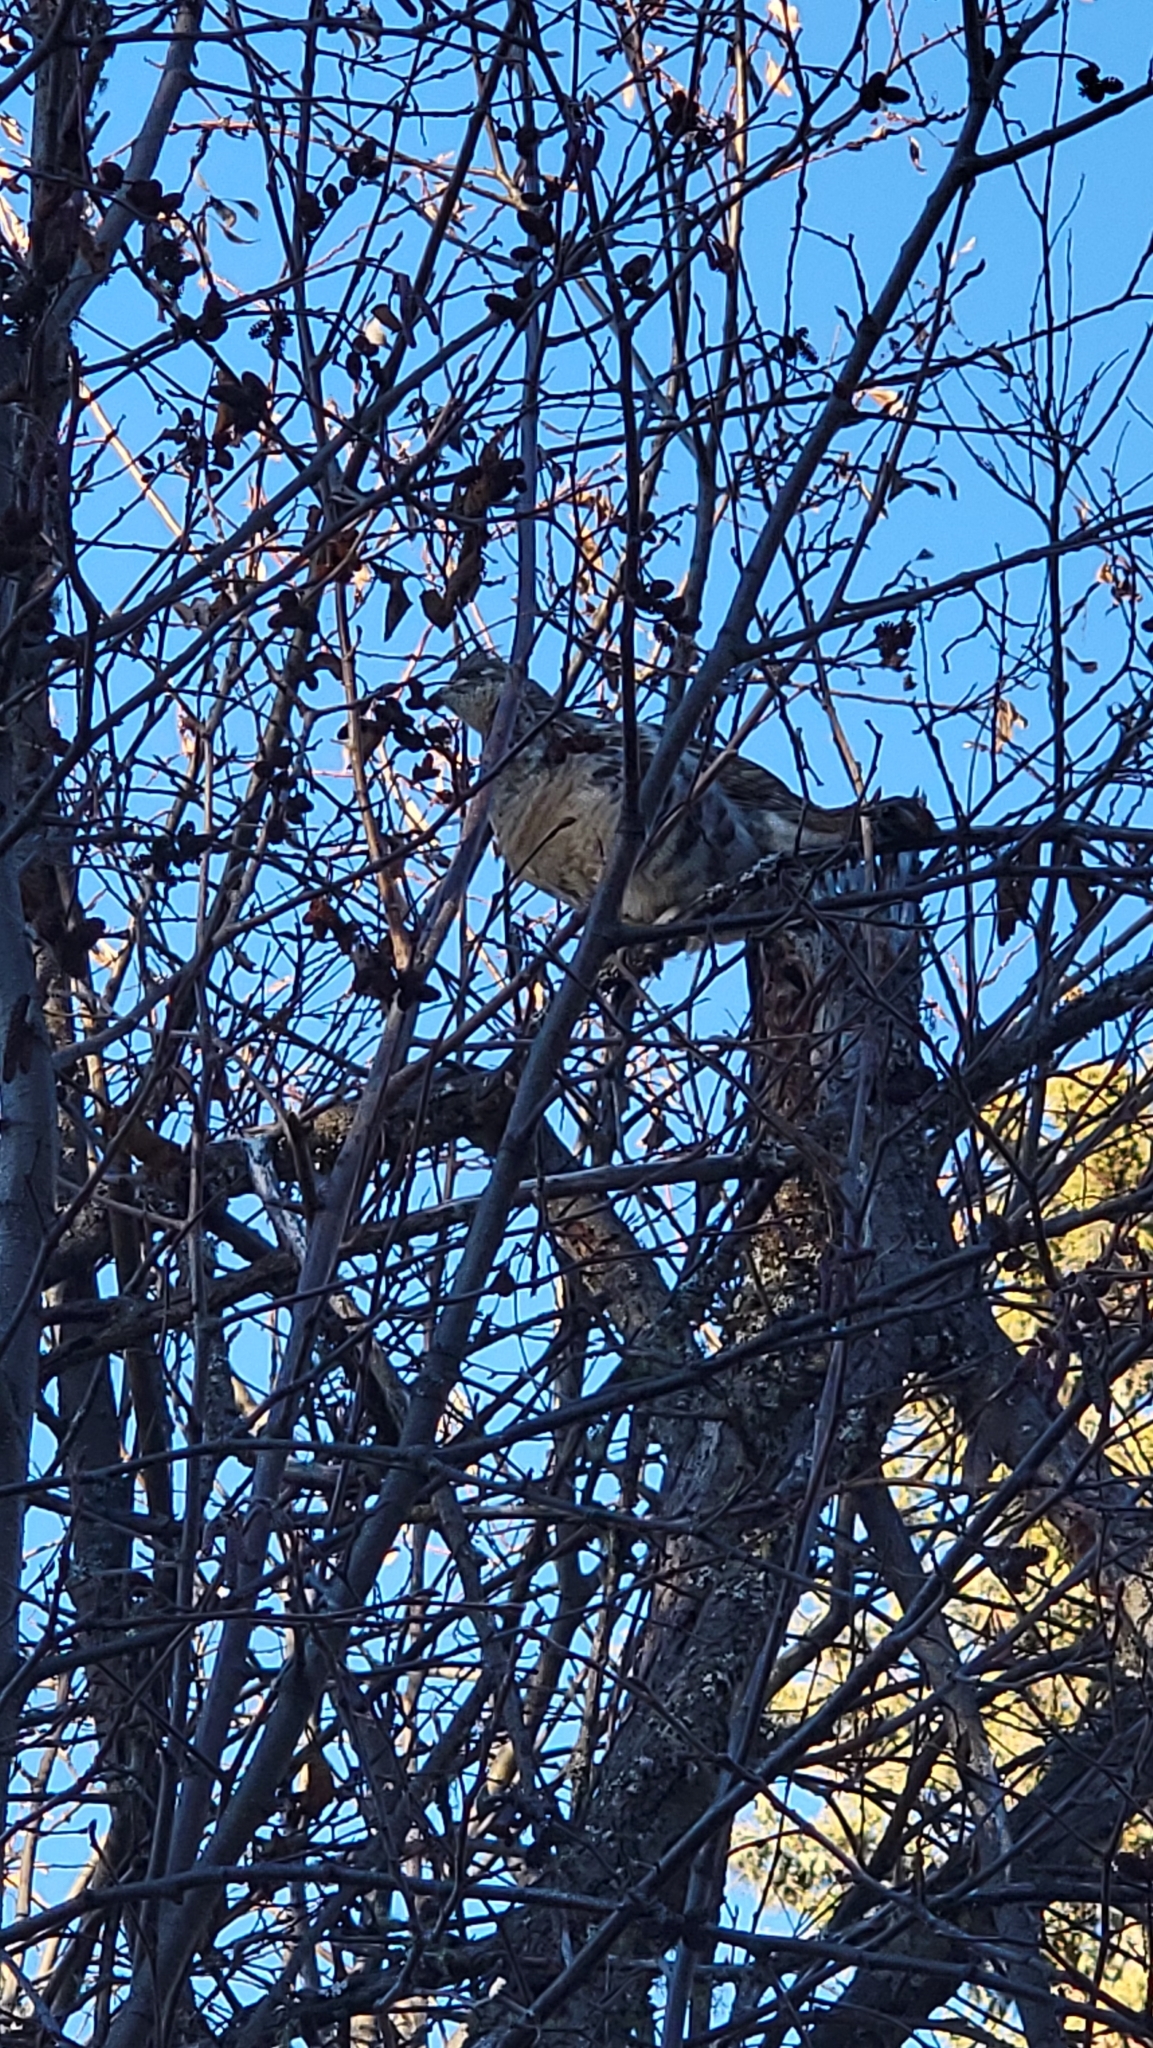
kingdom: Animalia
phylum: Chordata
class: Aves
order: Galliformes
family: Phasianidae
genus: Bonasa
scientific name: Bonasa umbellus
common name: Ruffed grouse
